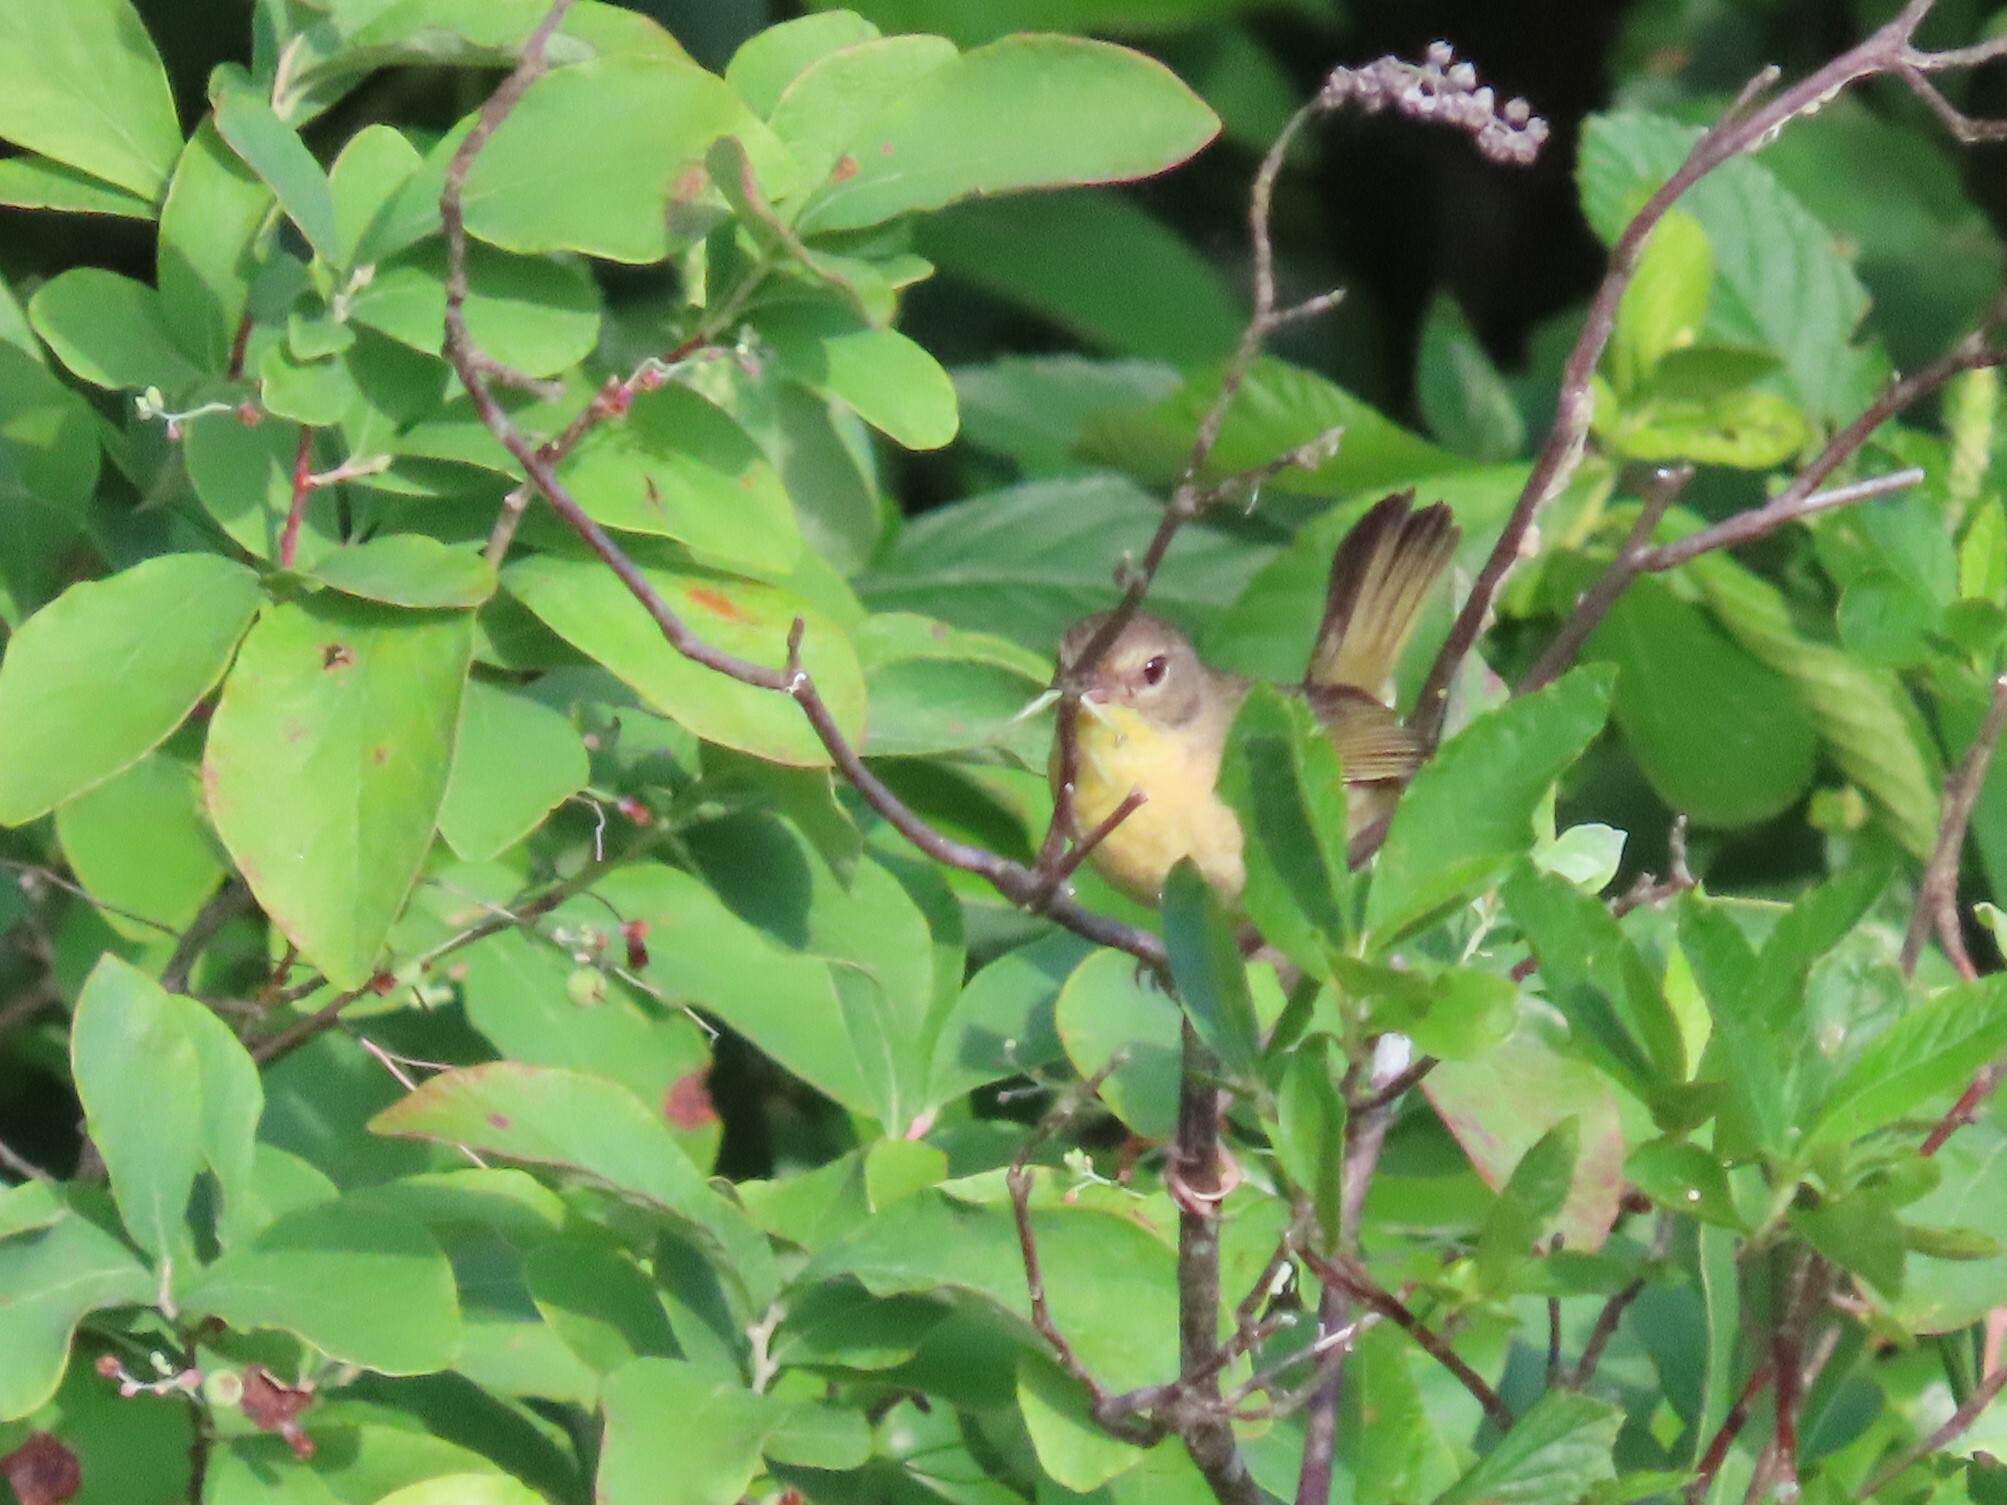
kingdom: Animalia
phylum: Chordata
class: Aves
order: Passeriformes
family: Parulidae
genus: Geothlypis
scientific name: Geothlypis trichas
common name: Common yellowthroat
